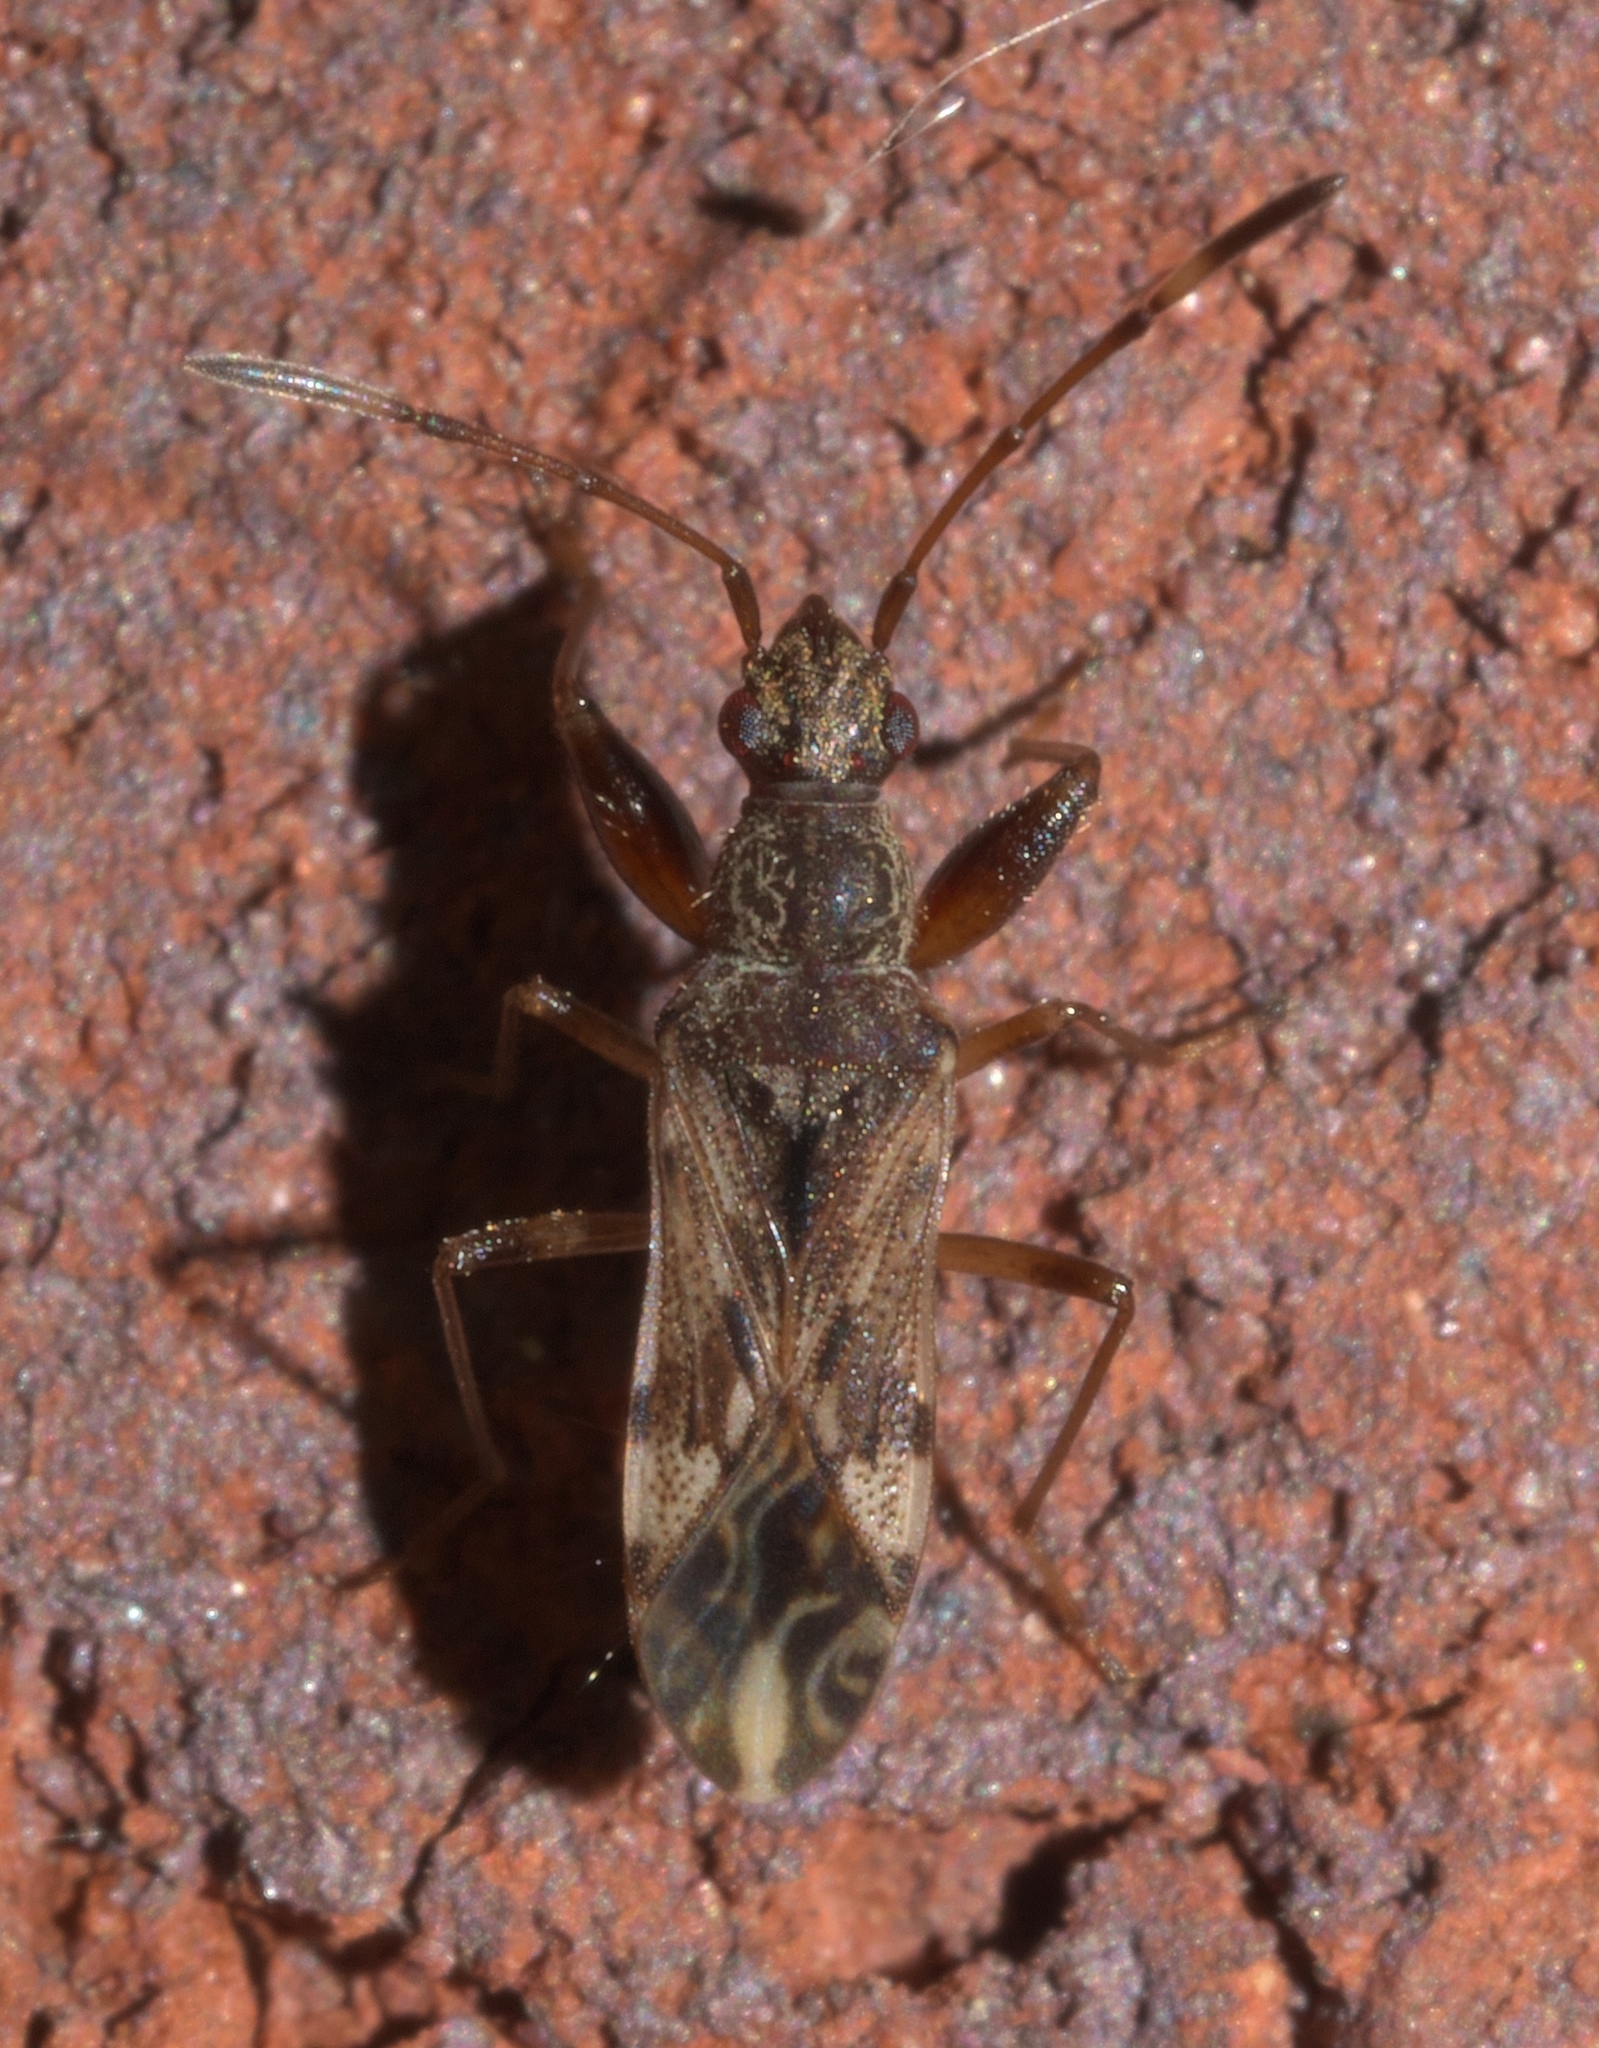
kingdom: Animalia
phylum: Arthropoda
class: Insecta
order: Hemiptera
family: Rhyparochromidae
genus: Neopamera
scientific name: Neopamera albocincta
